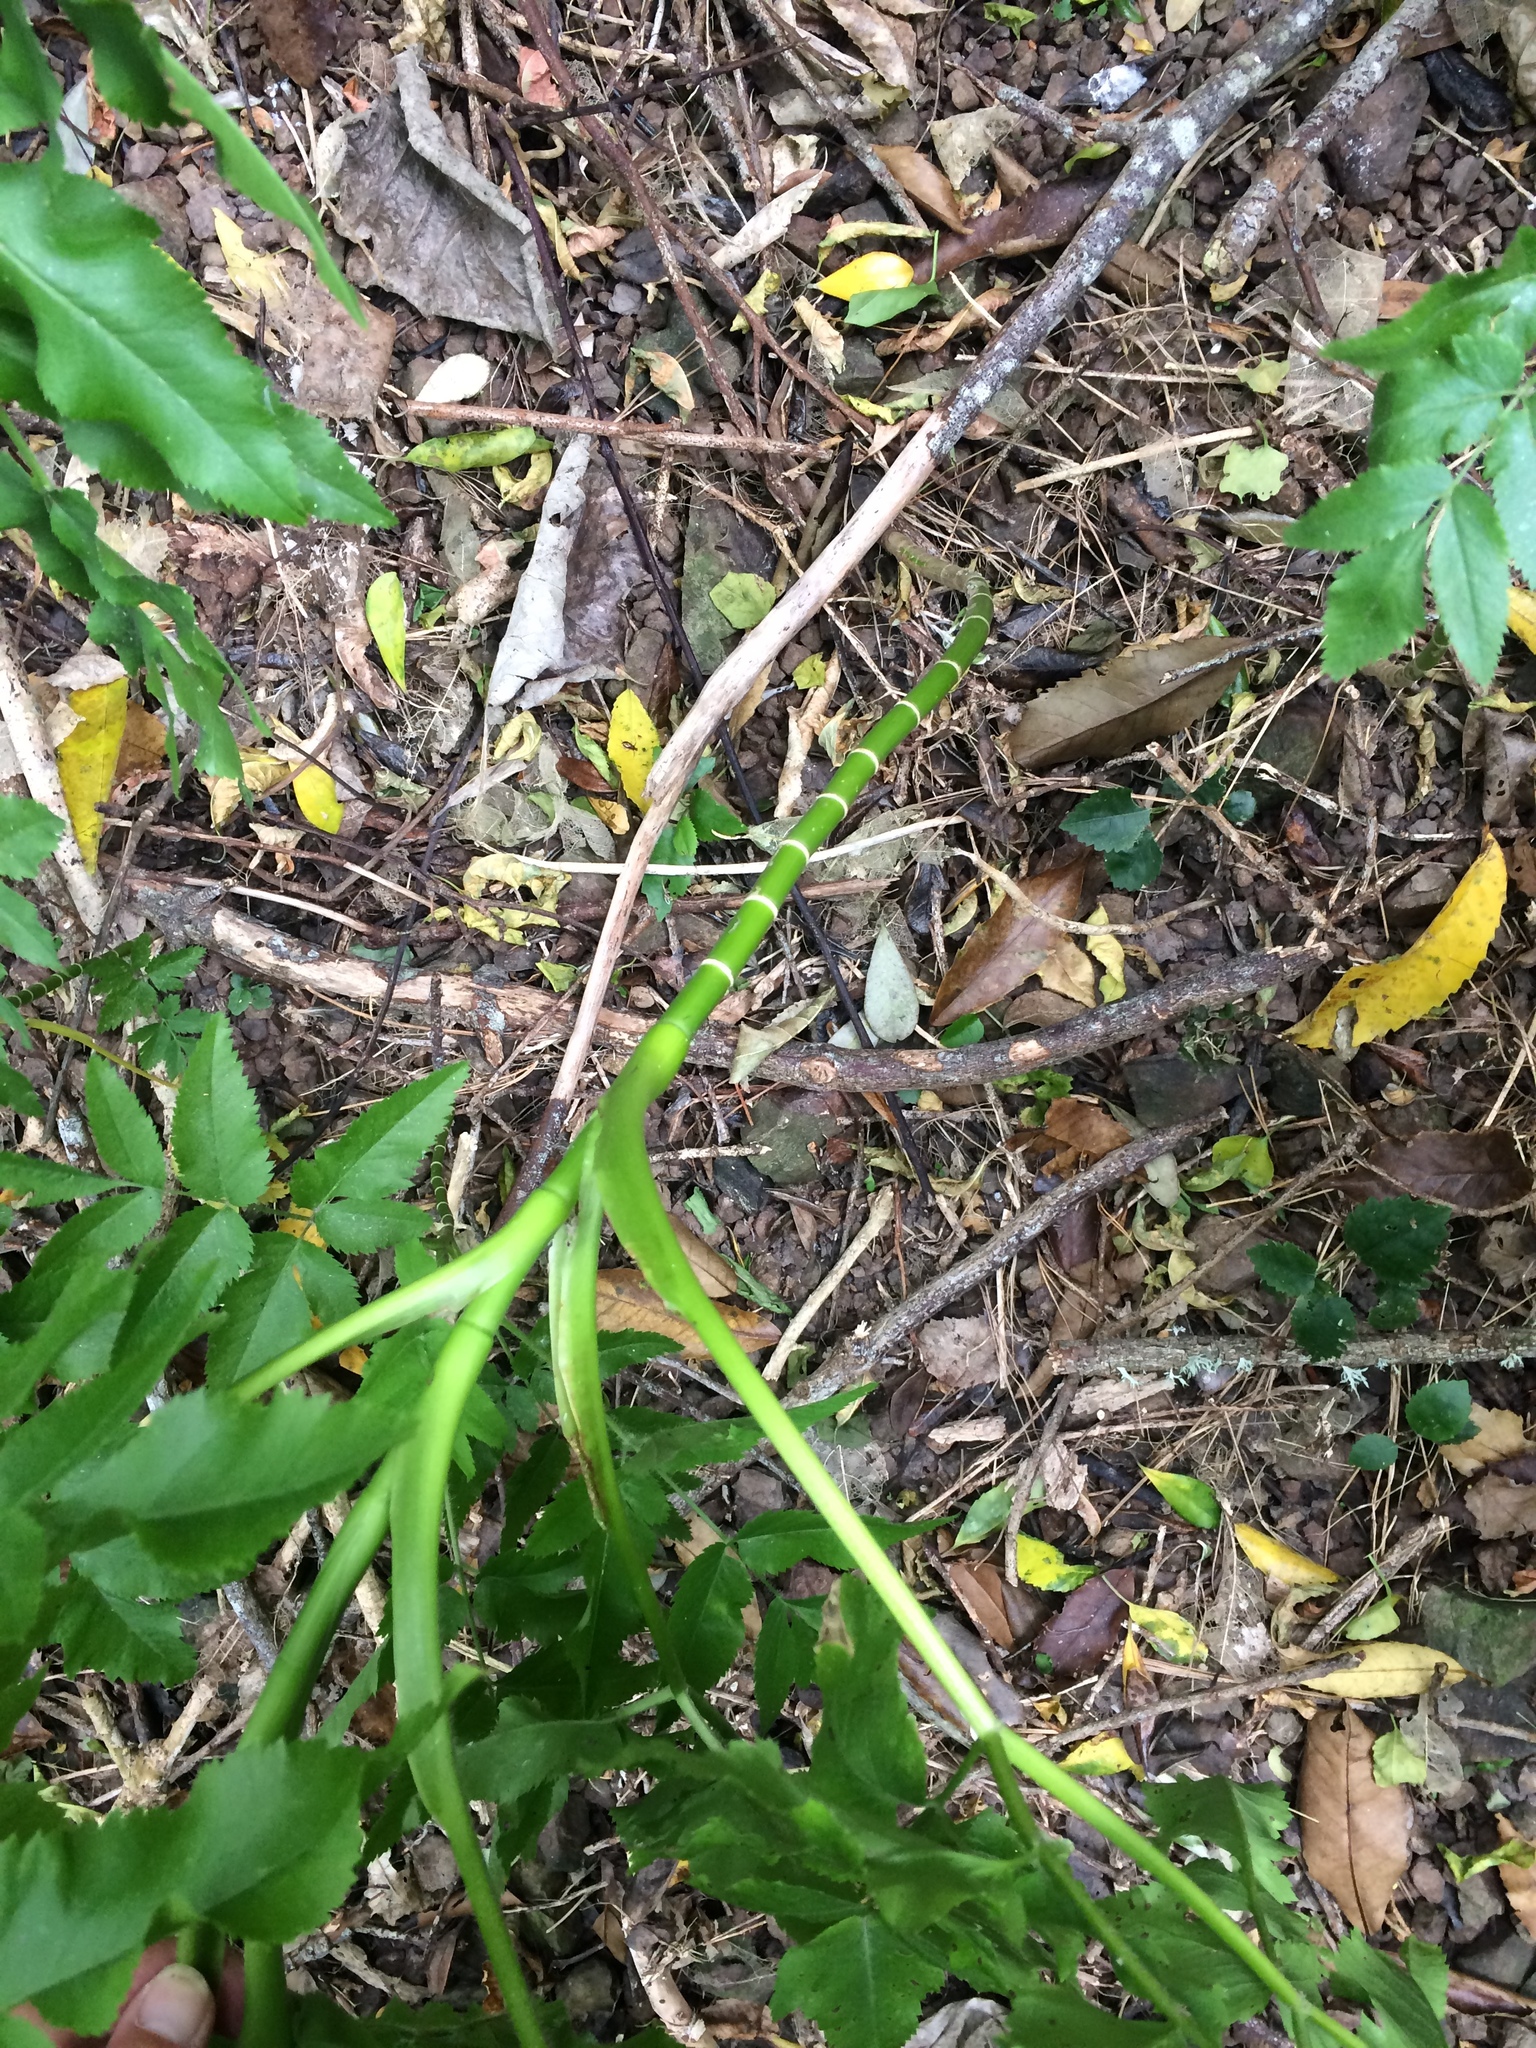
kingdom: Plantae
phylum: Tracheophyta
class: Magnoliopsida
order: Apiales
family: Apiaceae
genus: Daucus
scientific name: Daucus decipiens
